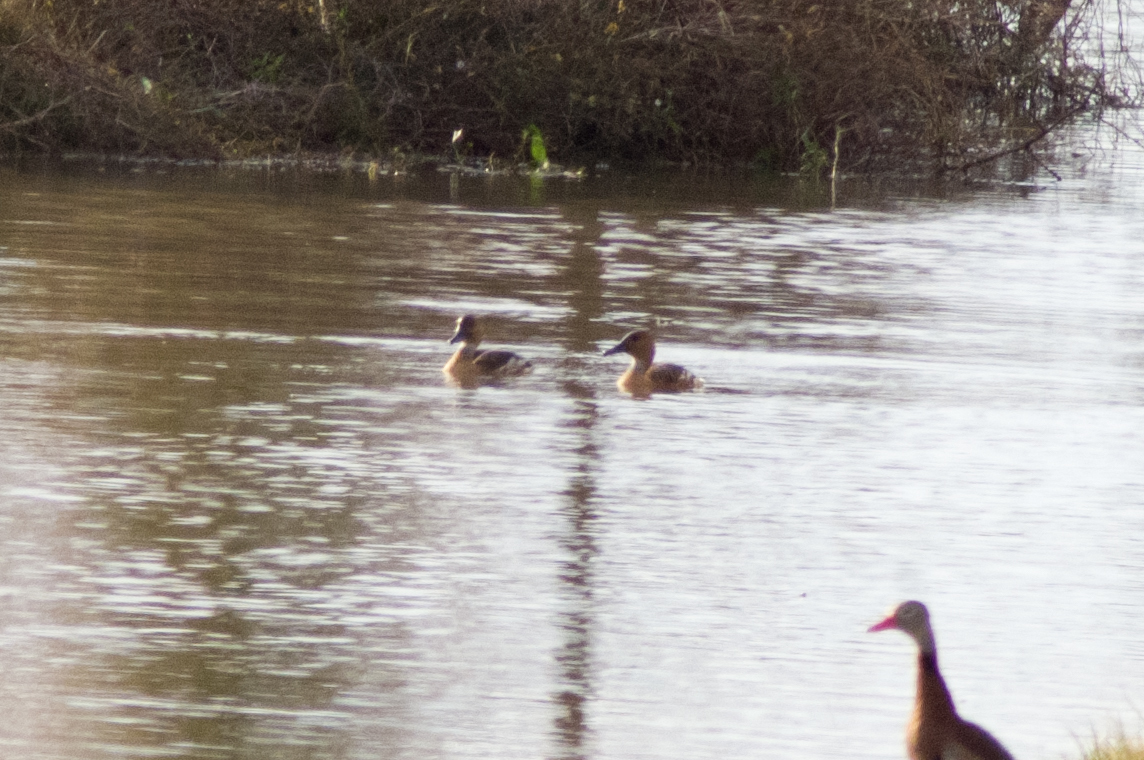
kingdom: Animalia
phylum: Chordata
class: Aves
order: Anseriformes
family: Anatidae
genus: Dendrocygna
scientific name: Dendrocygna bicolor
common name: Fulvous whistling duck
